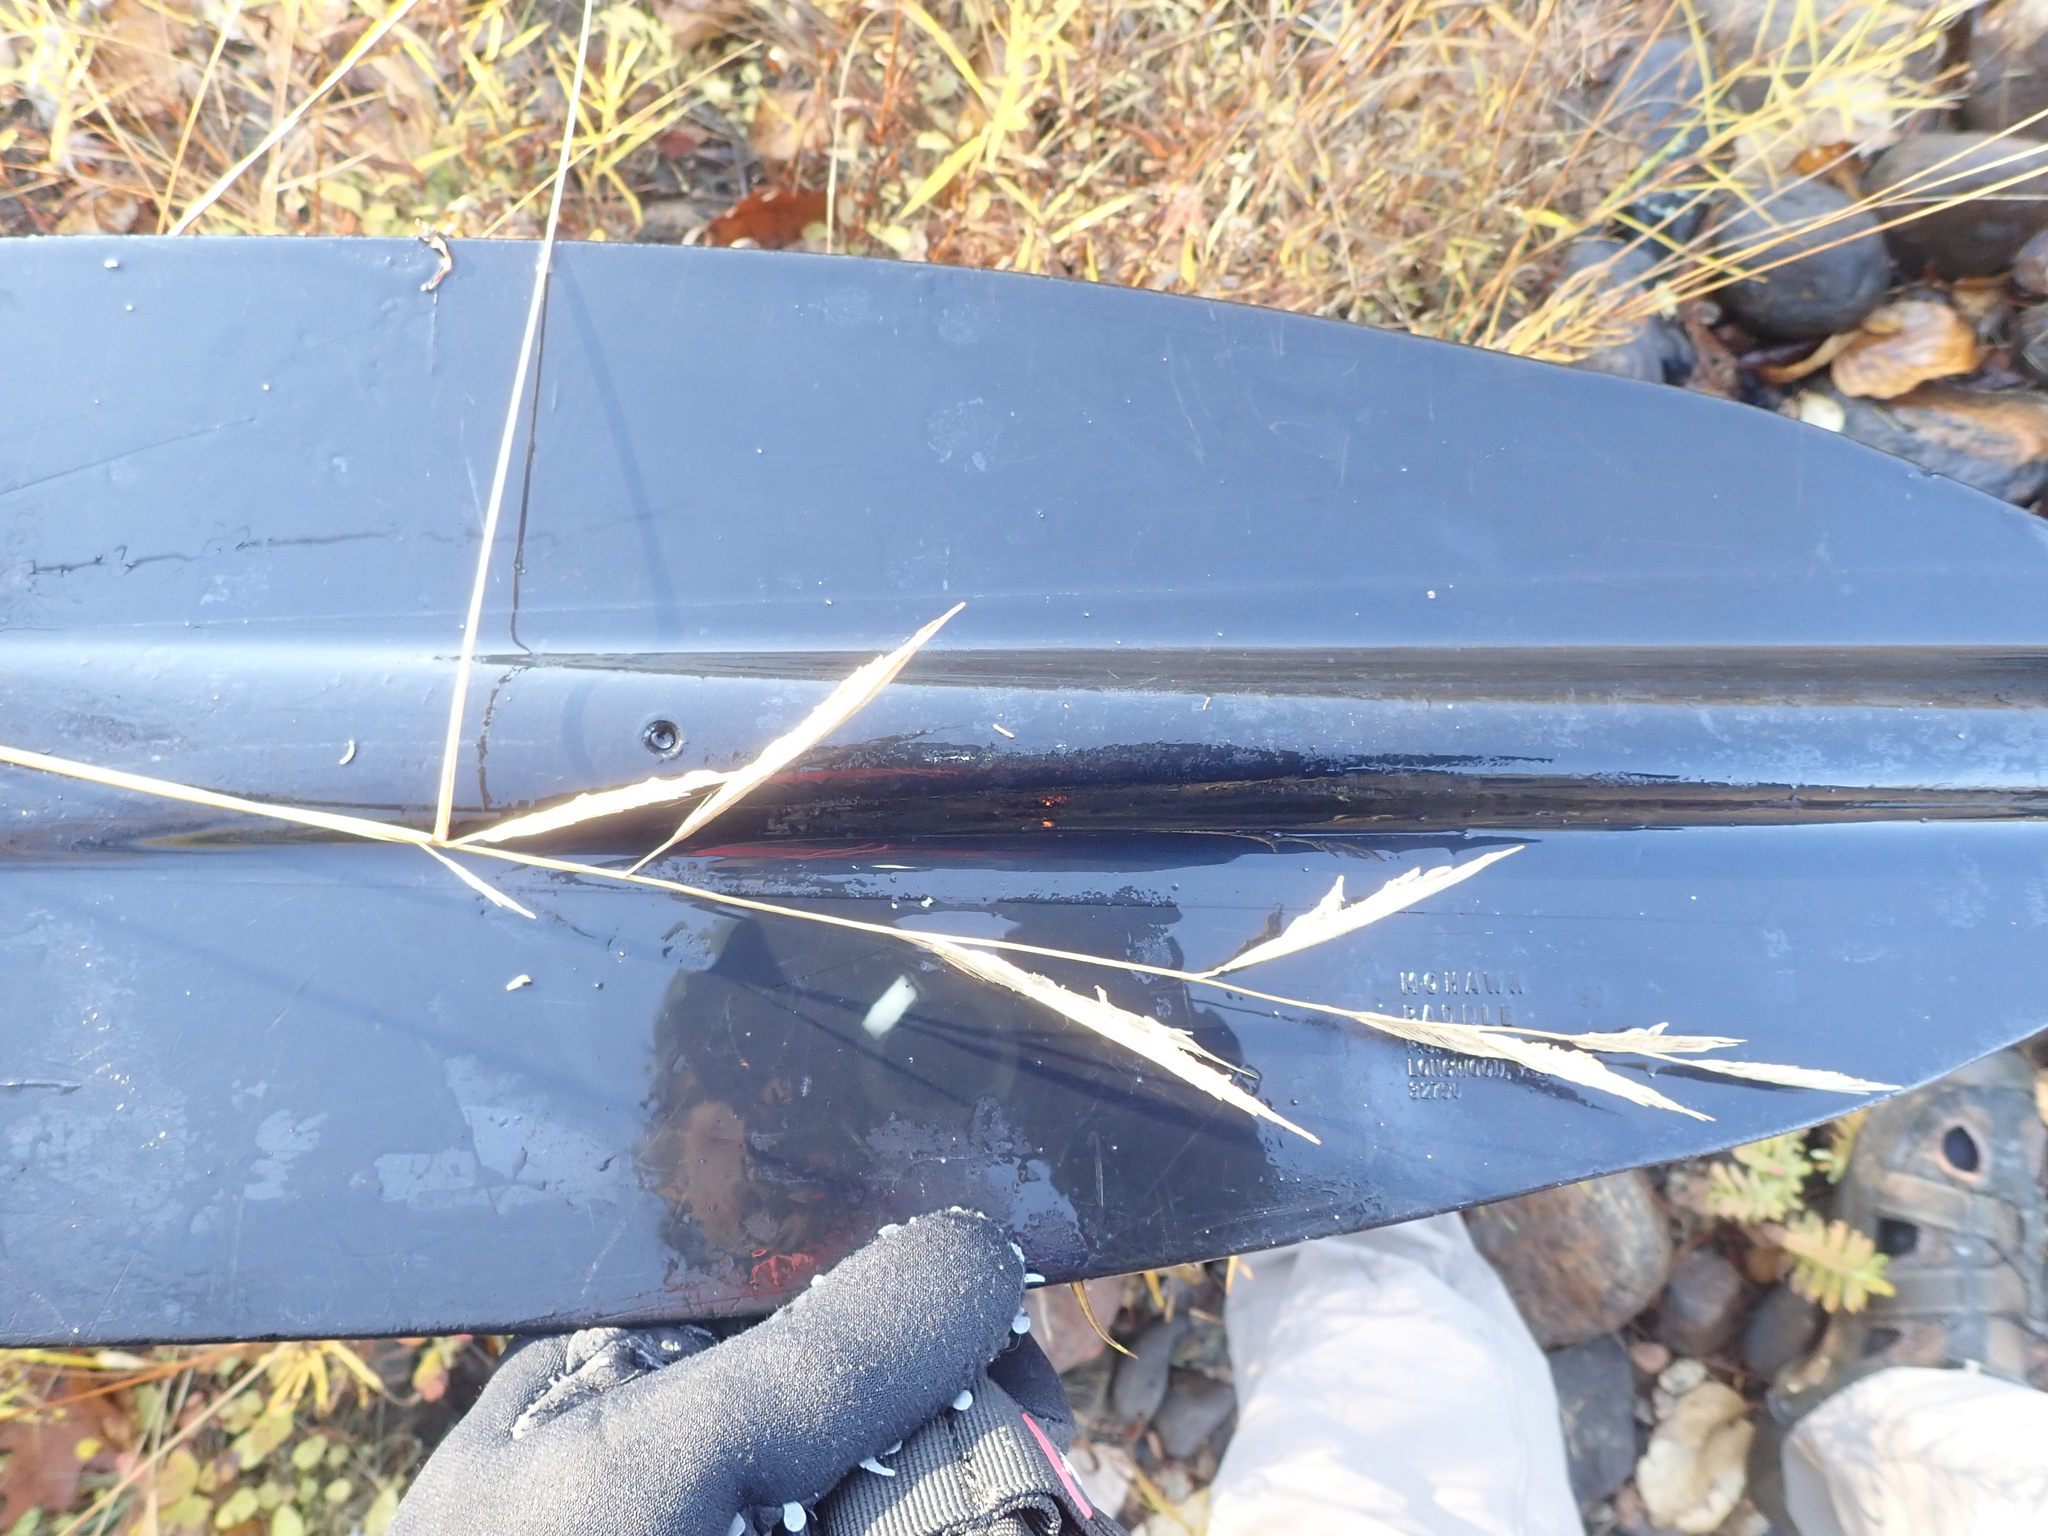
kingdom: Plantae
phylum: Tracheophyta
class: Liliopsida
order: Poales
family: Poaceae
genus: Sporobolus
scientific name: Sporobolus michauxianus
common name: Freshwater cordgrass
